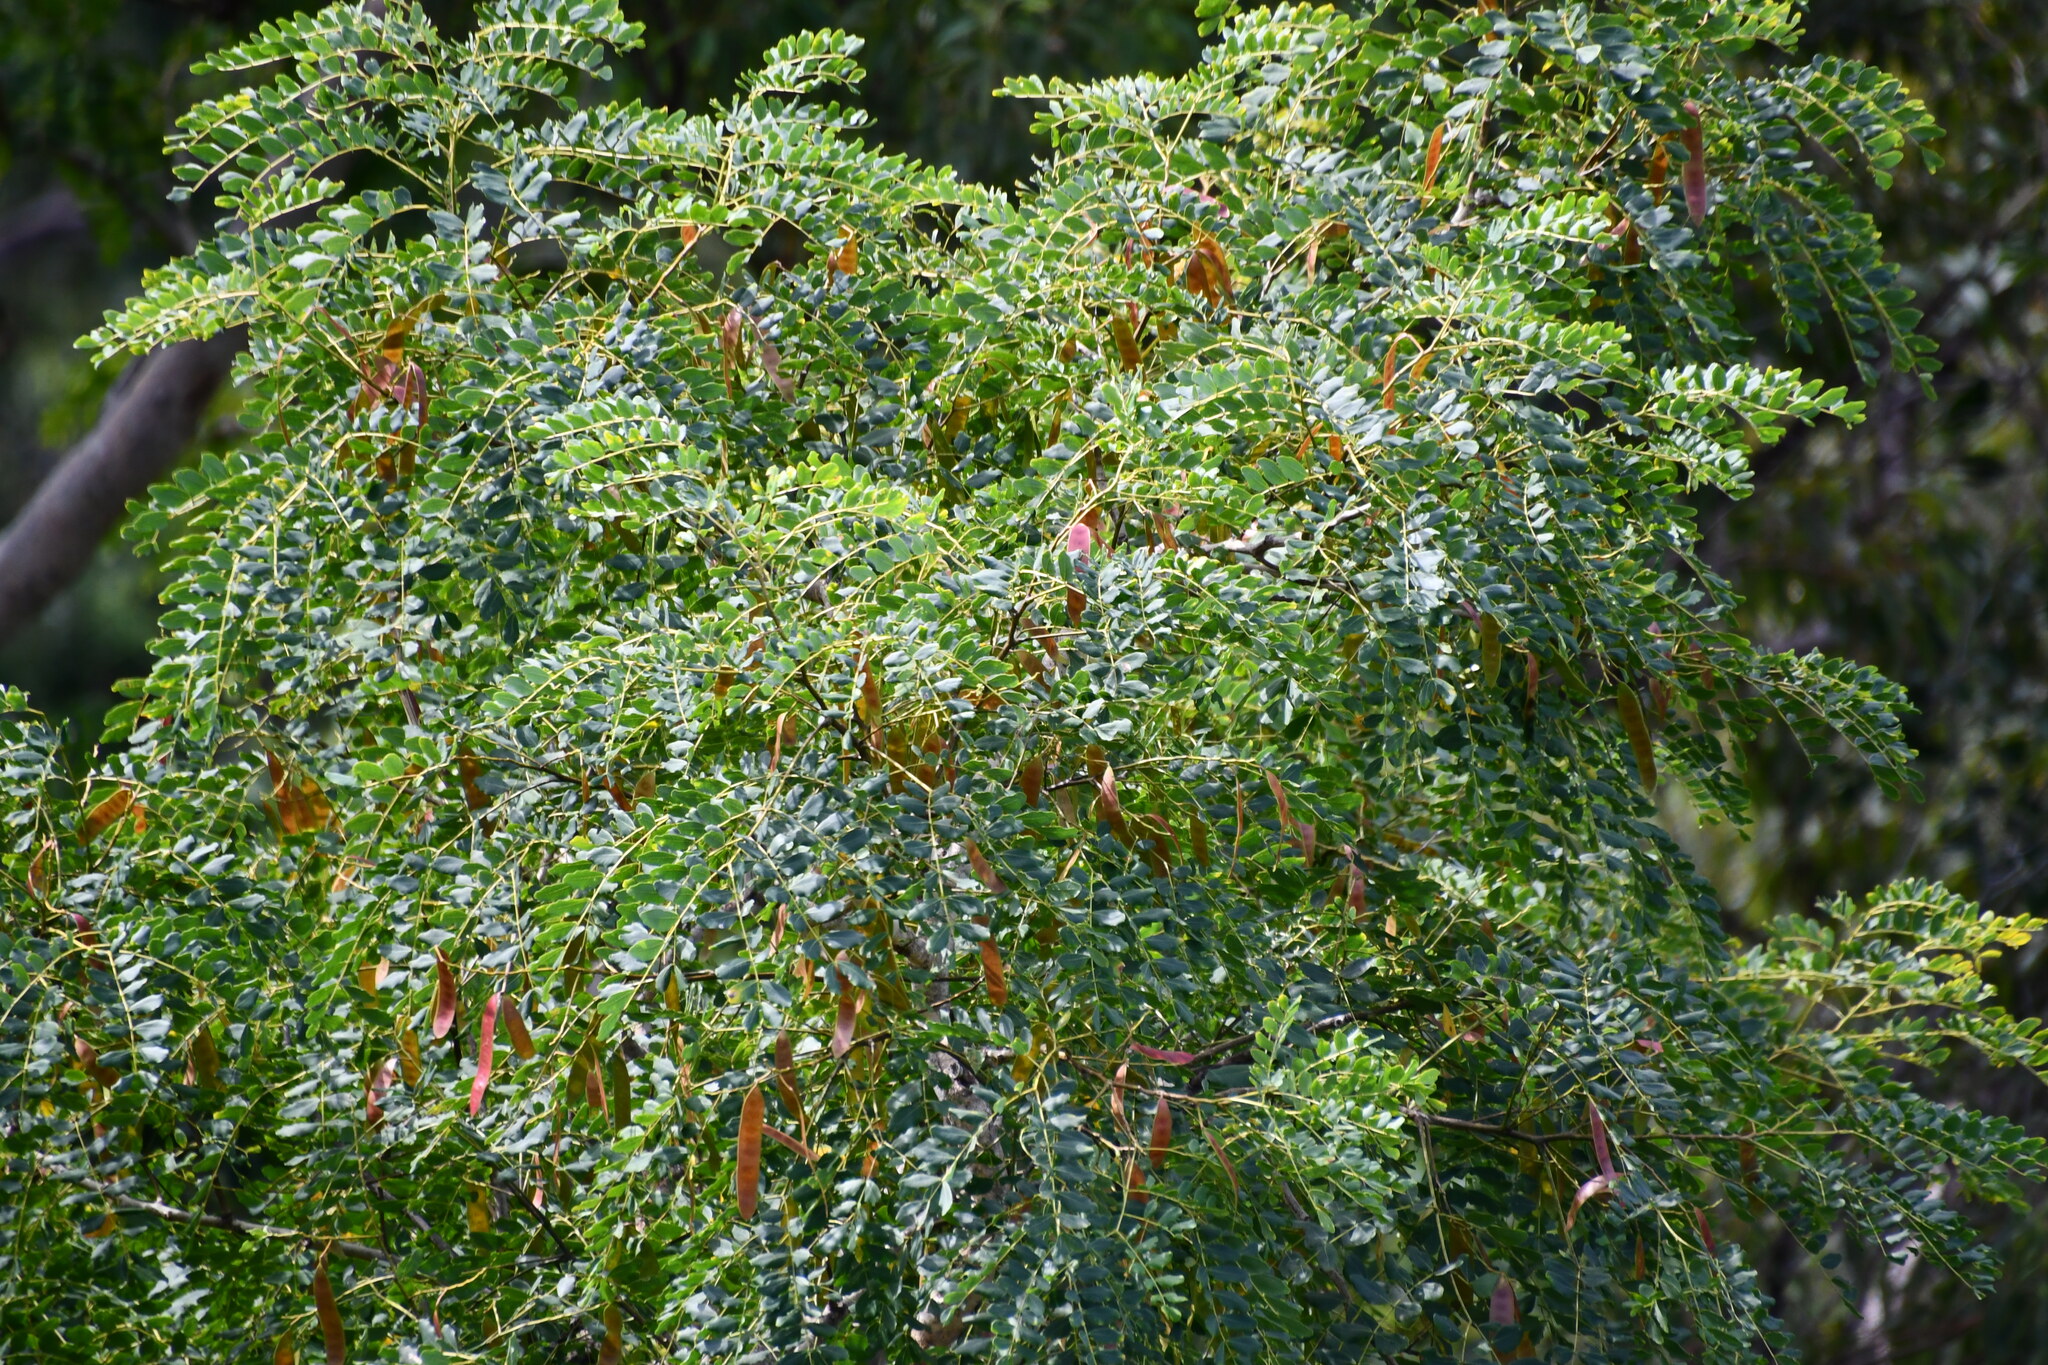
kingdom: Plantae
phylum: Tracheophyta
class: Magnoliopsida
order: Fabales
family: Fabaceae
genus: Albizia
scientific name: Albizia procera
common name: Tall albizia
